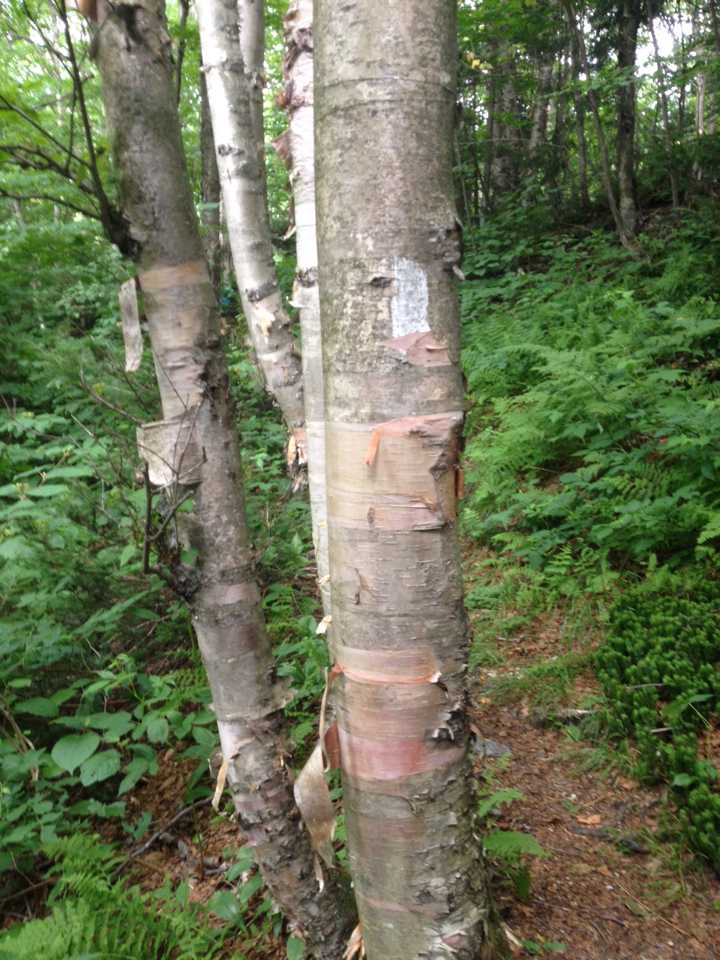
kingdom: Plantae
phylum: Tracheophyta
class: Magnoliopsida
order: Fagales
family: Betulaceae
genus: Betula
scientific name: Betula cordifolia
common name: Mountain white birch
